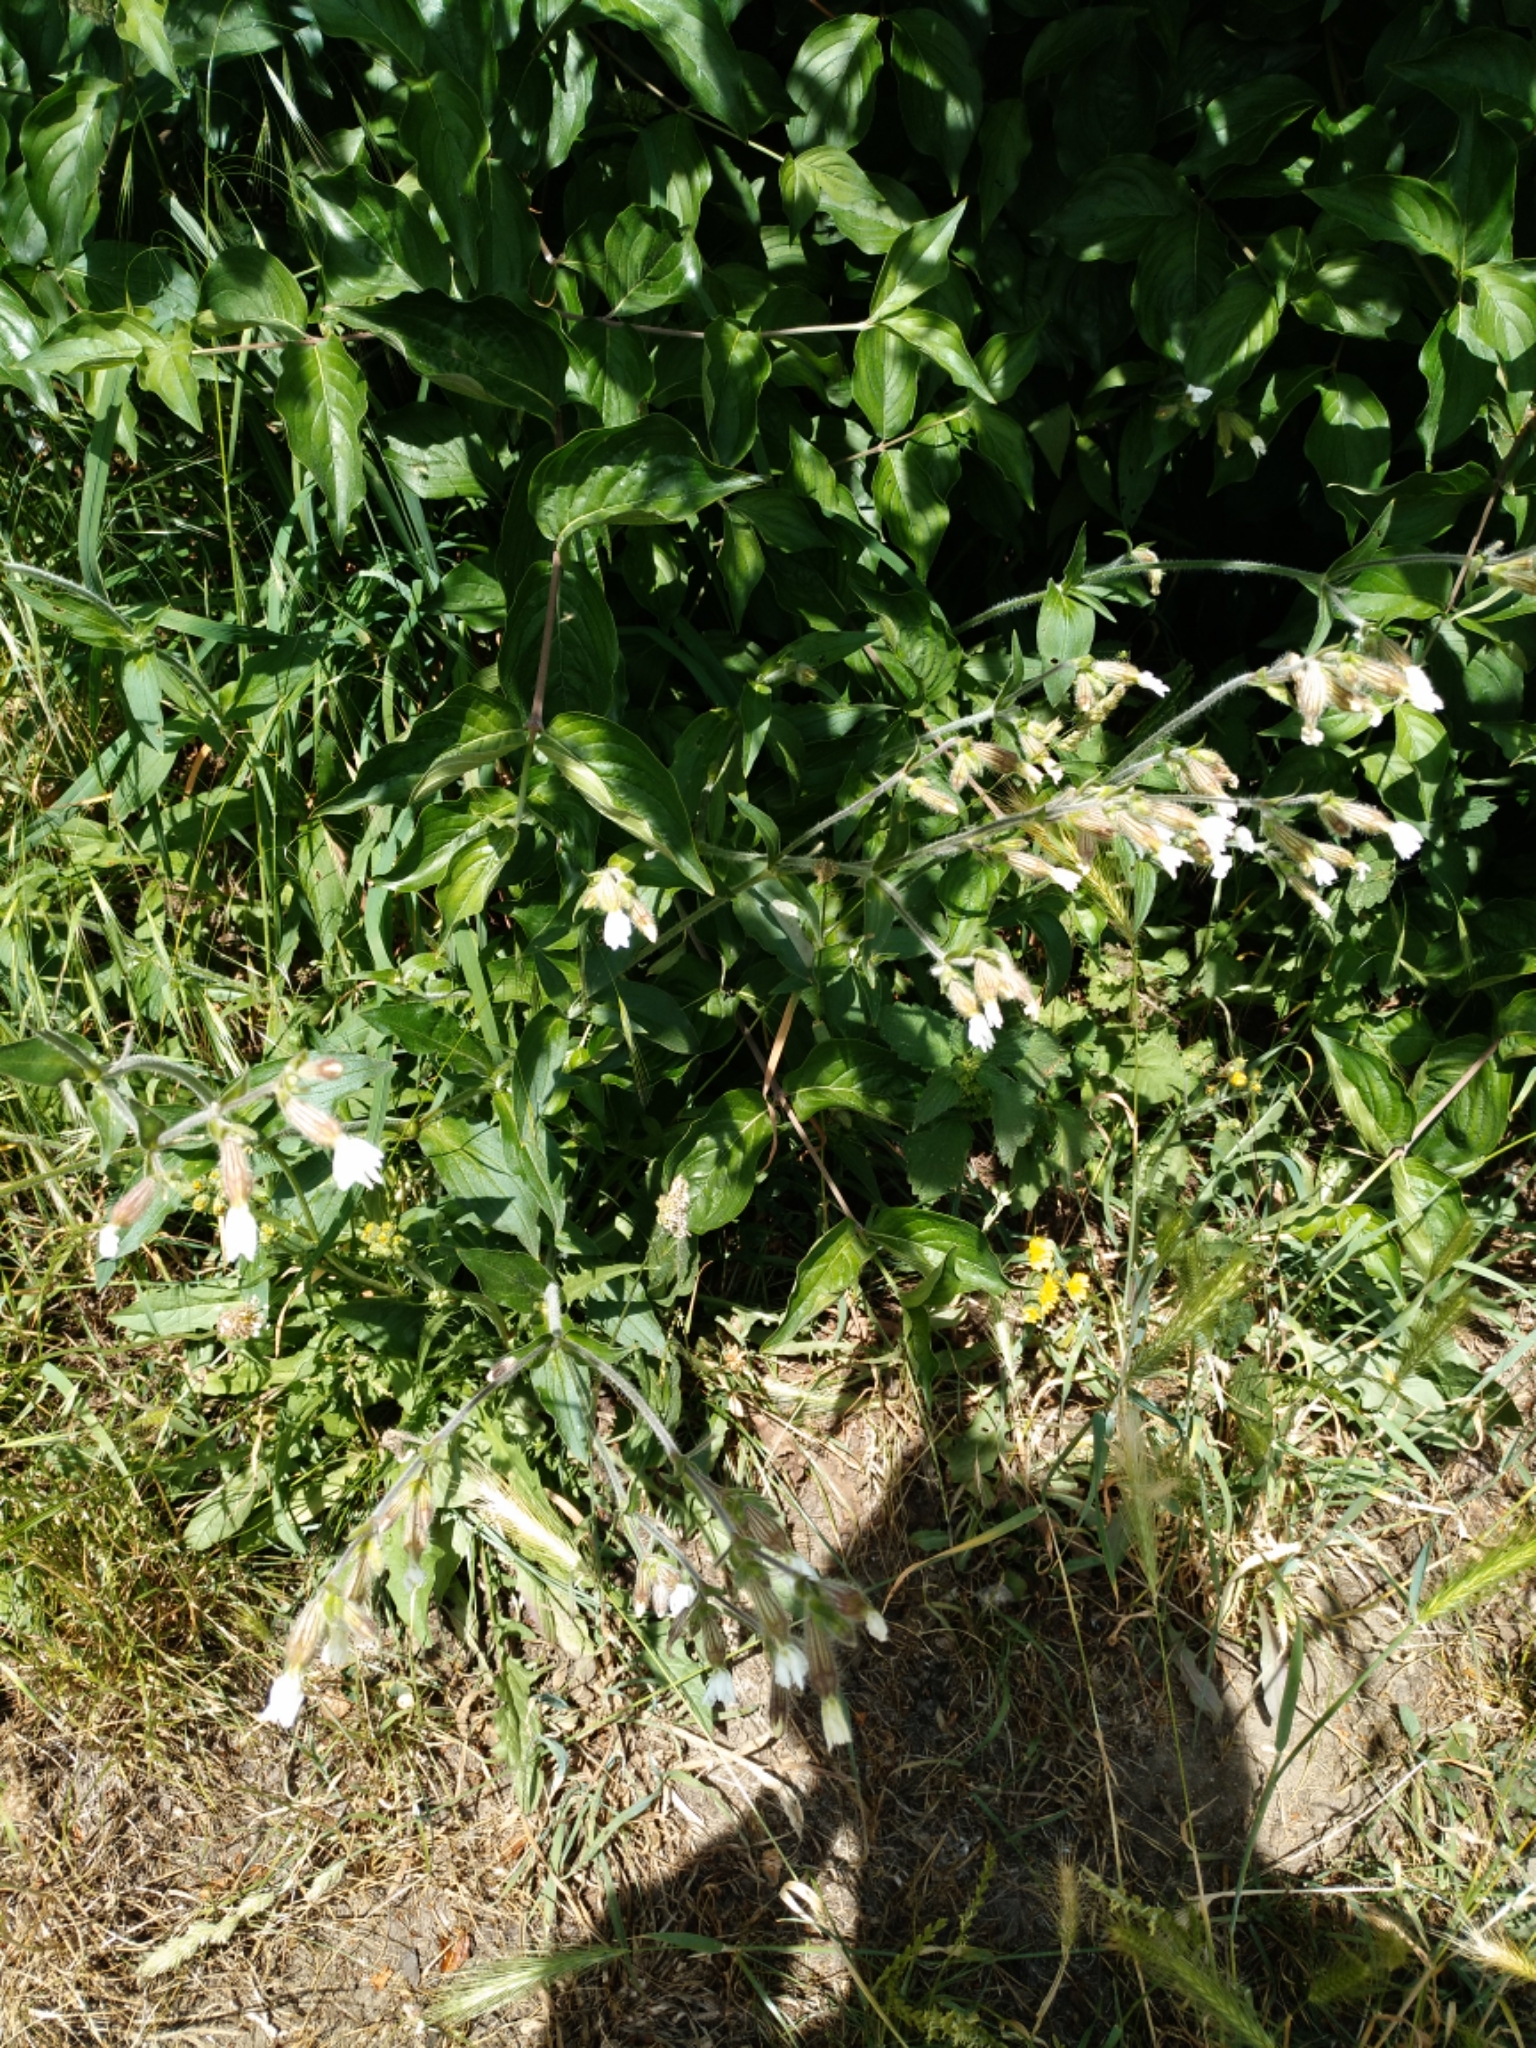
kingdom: Plantae
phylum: Tracheophyta
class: Magnoliopsida
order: Caryophyllales
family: Caryophyllaceae
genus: Silene
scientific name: Silene latifolia
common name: White campion
